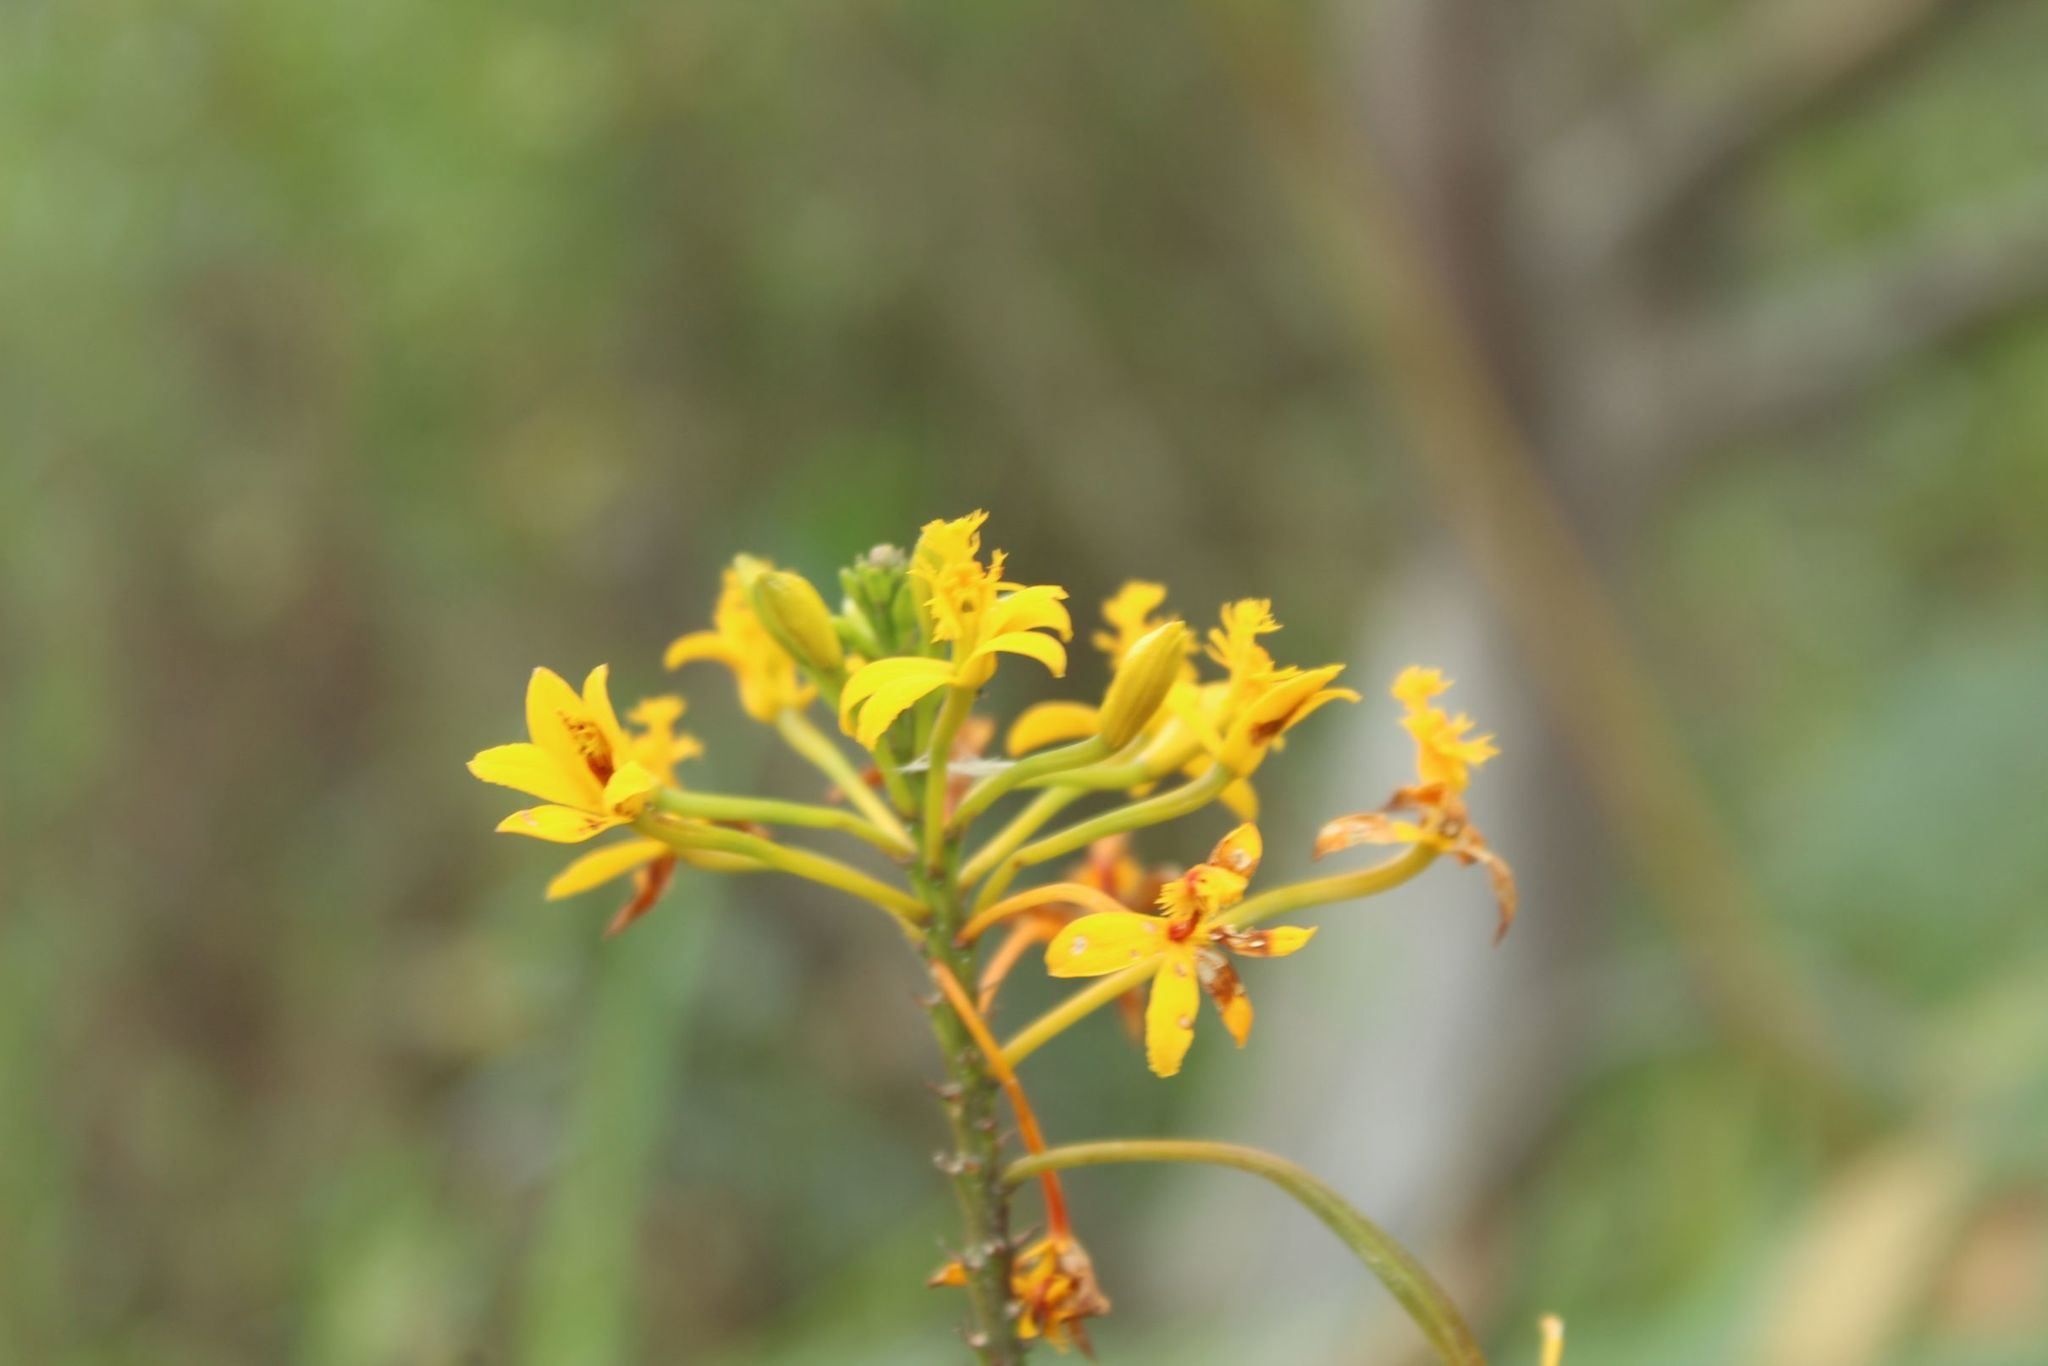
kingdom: Plantae
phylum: Tracheophyta
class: Liliopsida
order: Asparagales
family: Orchidaceae
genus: Epidendrum
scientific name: Epidendrum aura-usecheae
